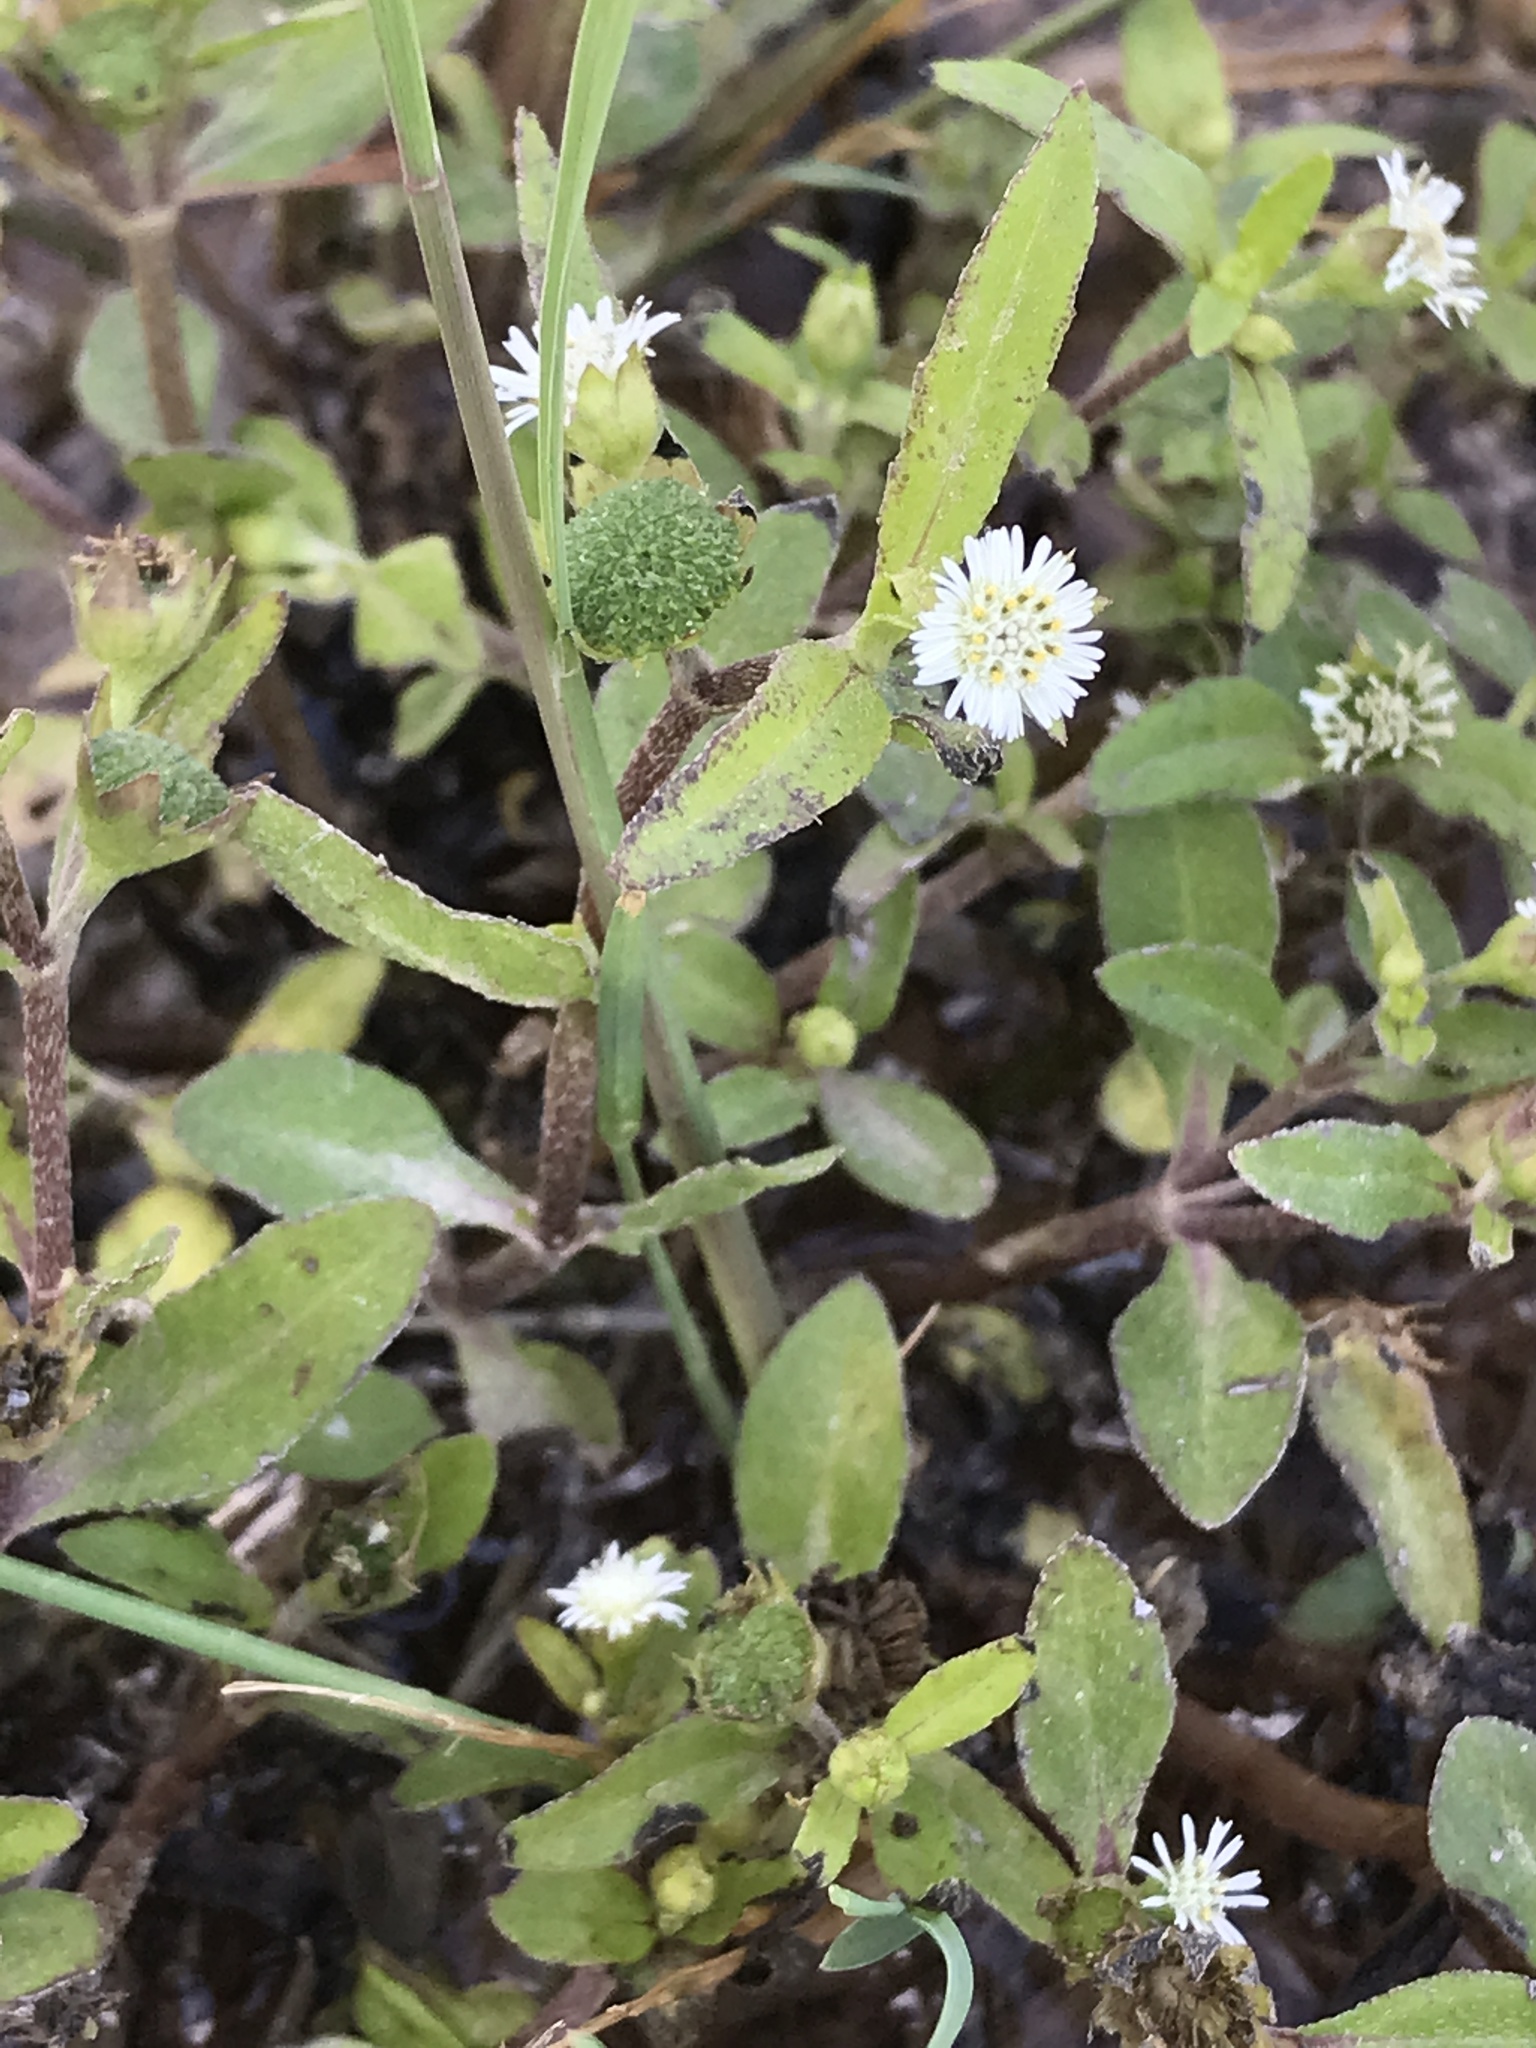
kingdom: Plantae
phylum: Tracheophyta
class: Magnoliopsida
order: Asterales
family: Asteraceae
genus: Eclipta
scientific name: Eclipta prostrata
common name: False daisy
